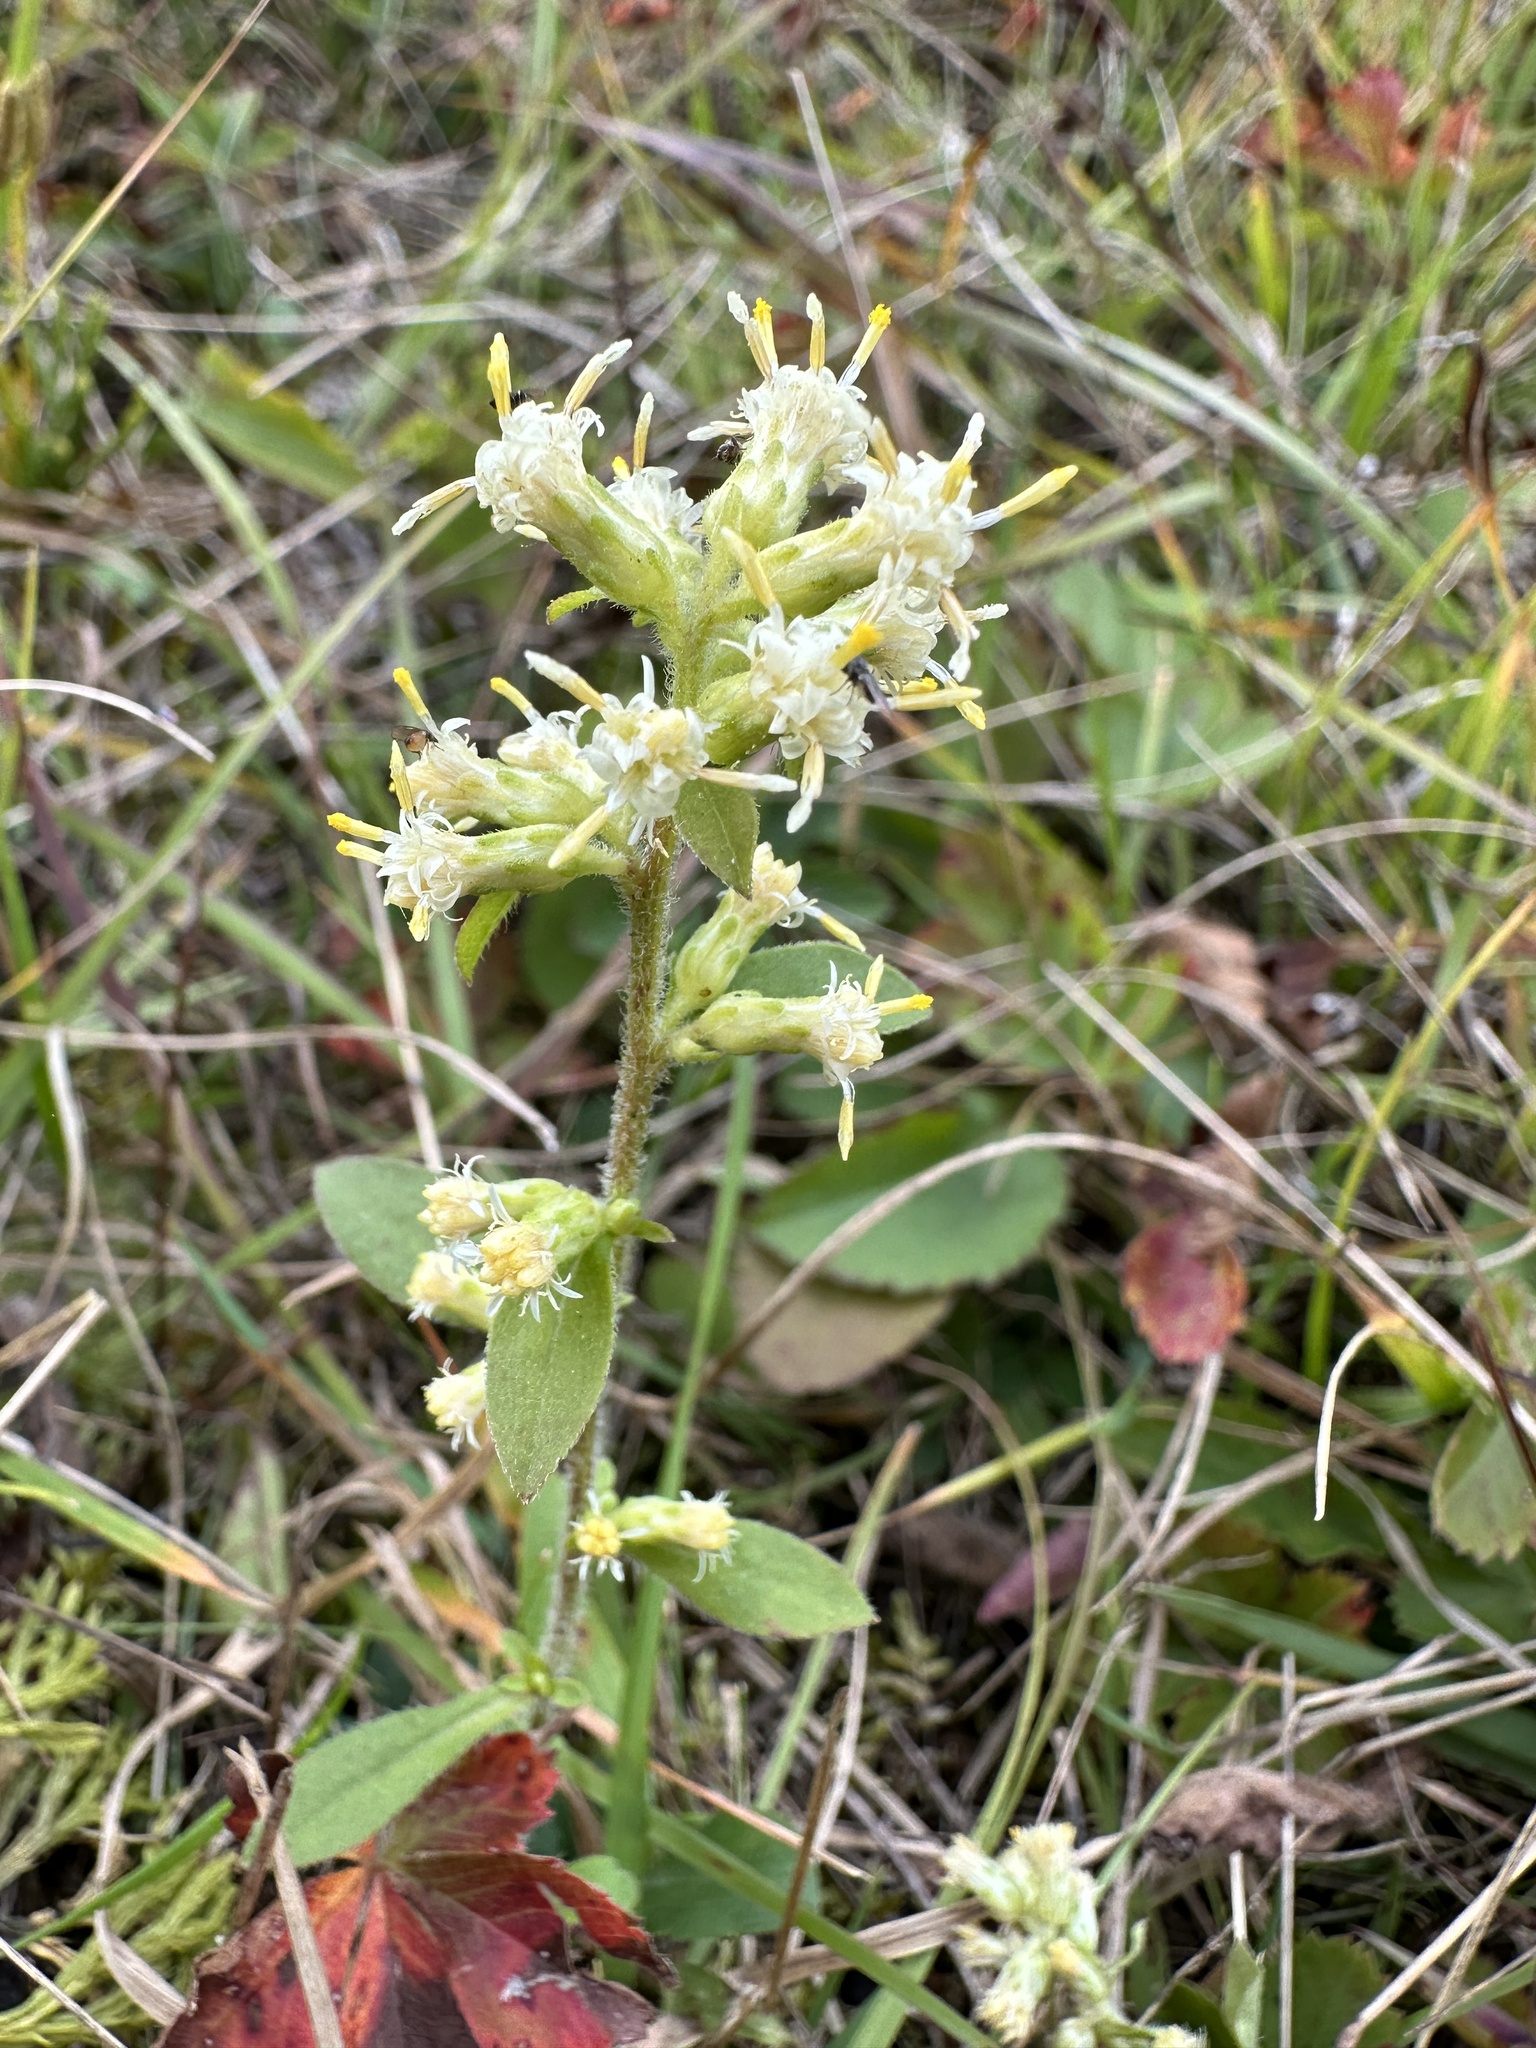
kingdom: Plantae
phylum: Tracheophyta
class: Magnoliopsida
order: Asterales
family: Asteraceae
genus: Solidago
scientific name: Solidago bicolor
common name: Silverrod
